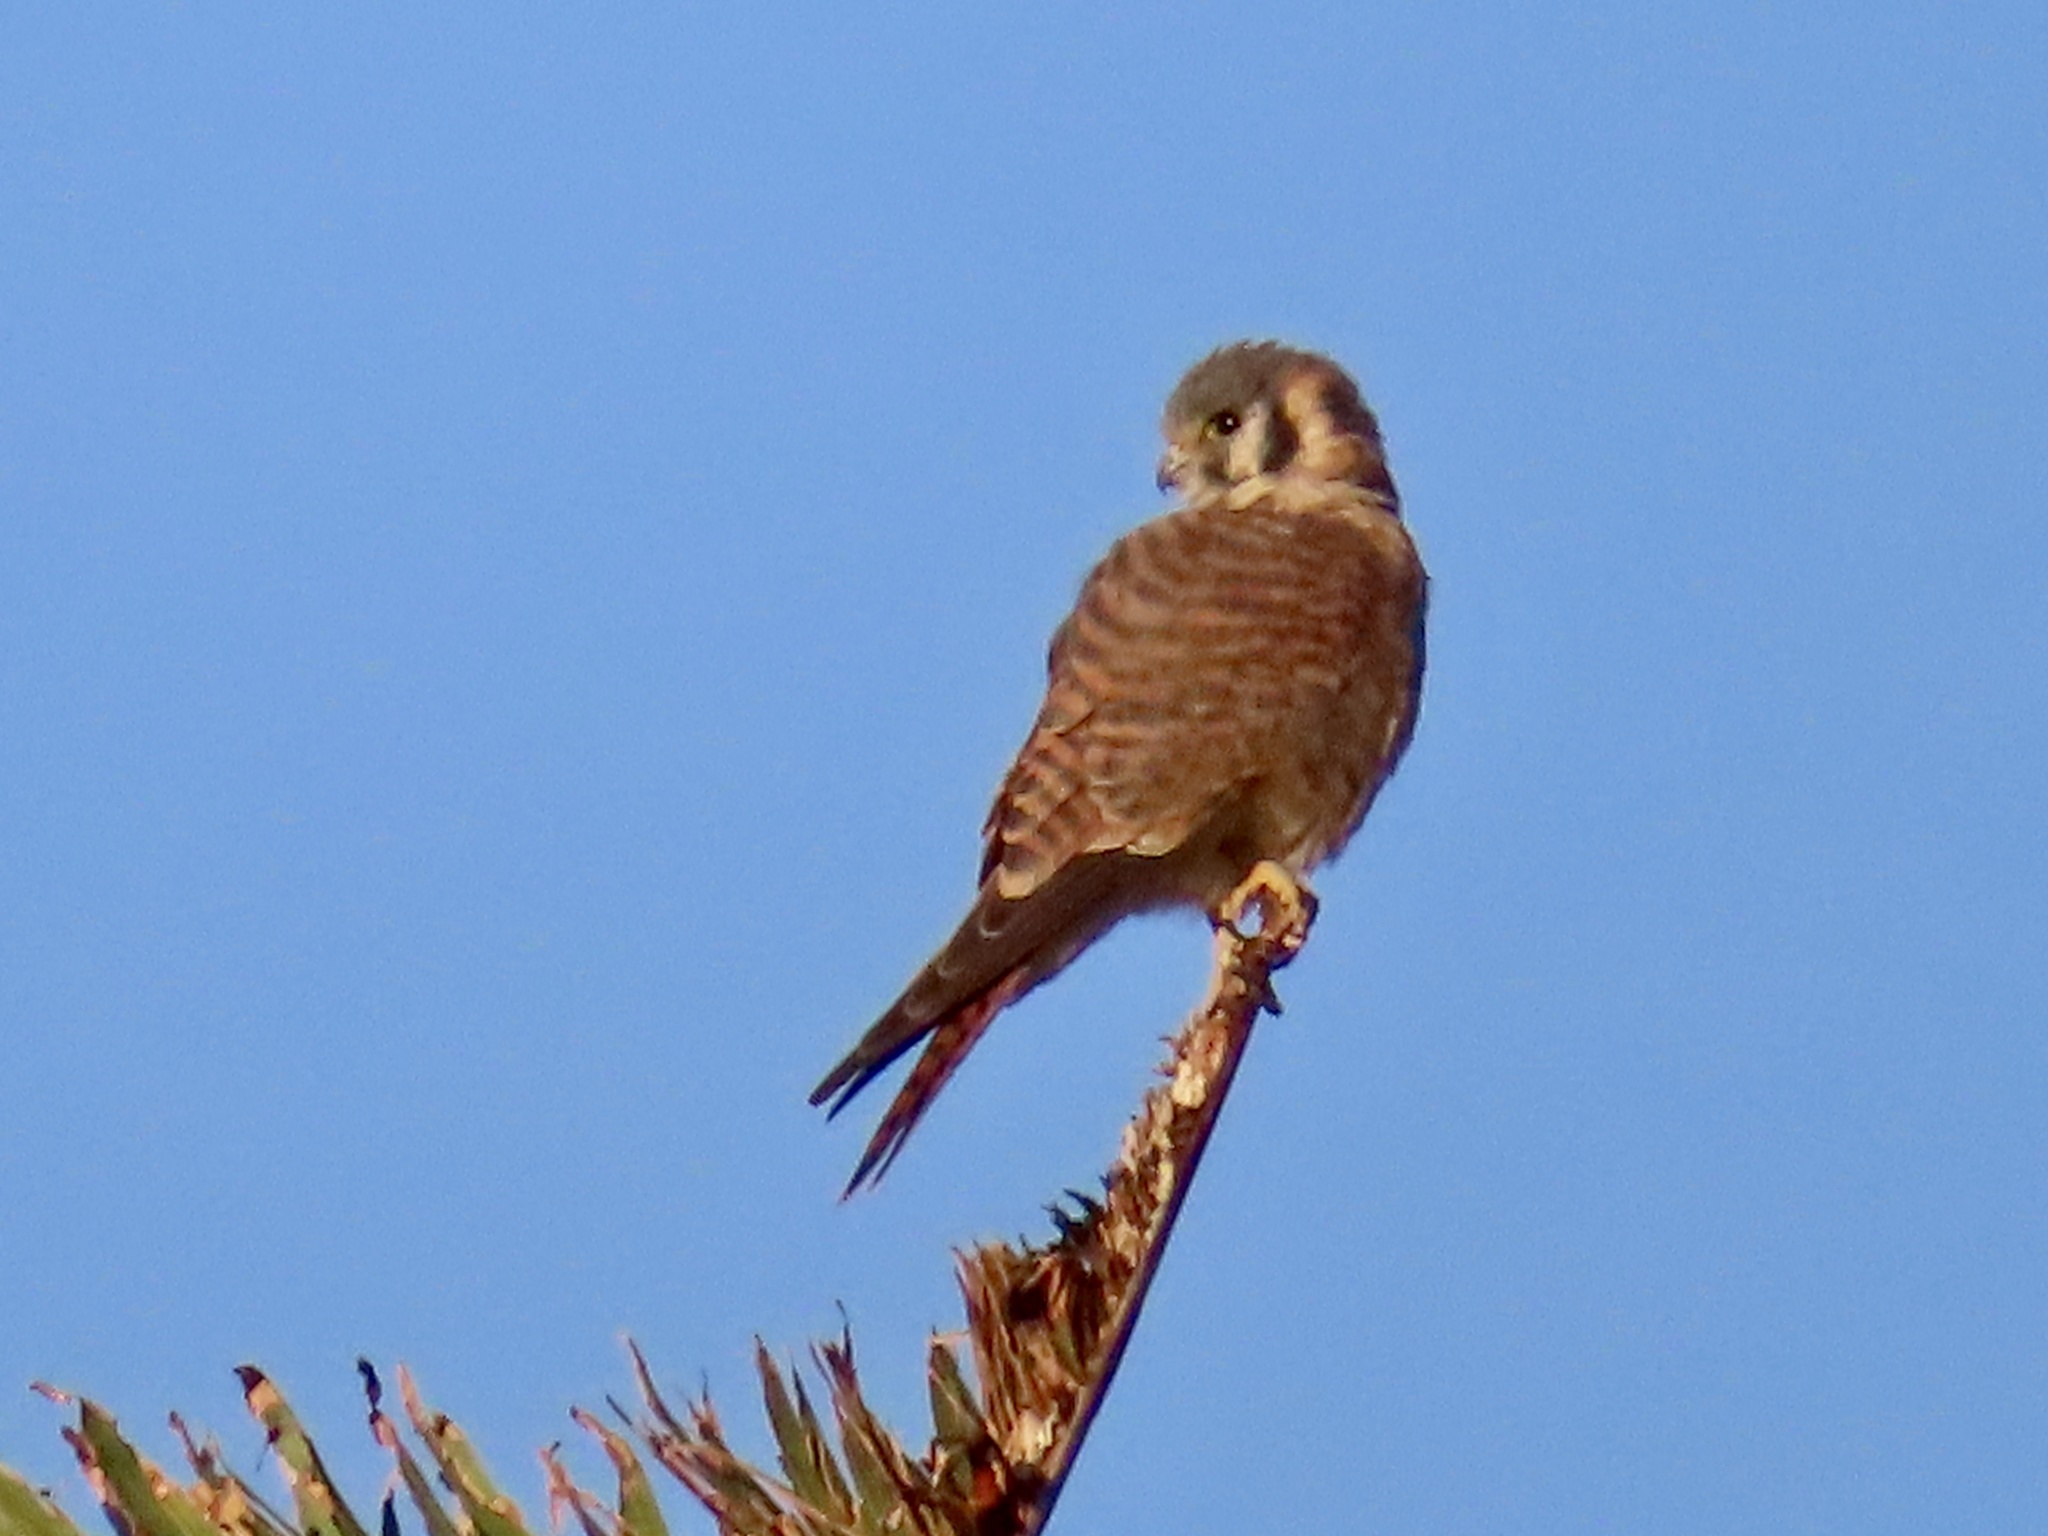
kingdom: Animalia
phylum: Chordata
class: Aves
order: Falconiformes
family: Falconidae
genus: Falco
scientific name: Falco sparverius
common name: American kestrel
